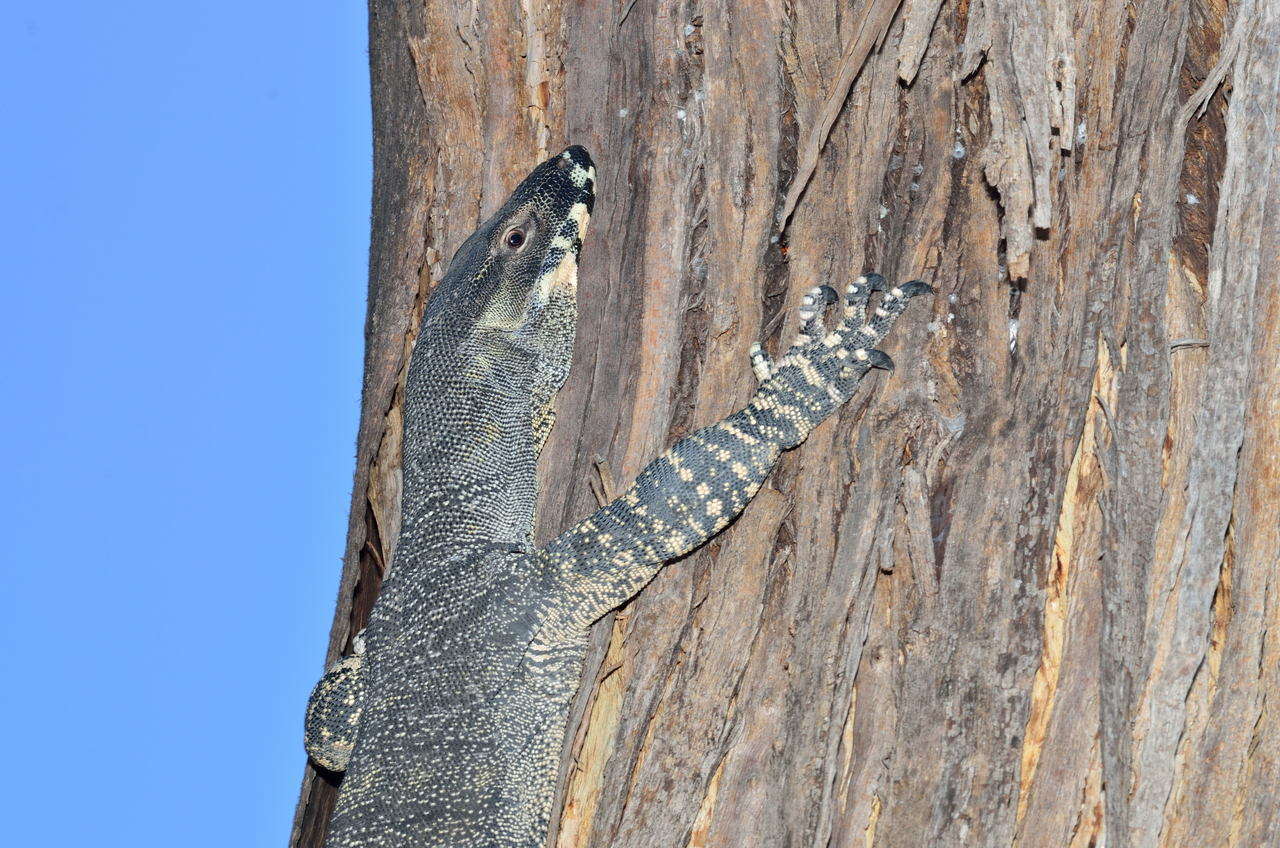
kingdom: Animalia
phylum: Chordata
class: Squamata
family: Varanidae
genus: Varanus
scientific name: Varanus varius
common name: Lace monitor
